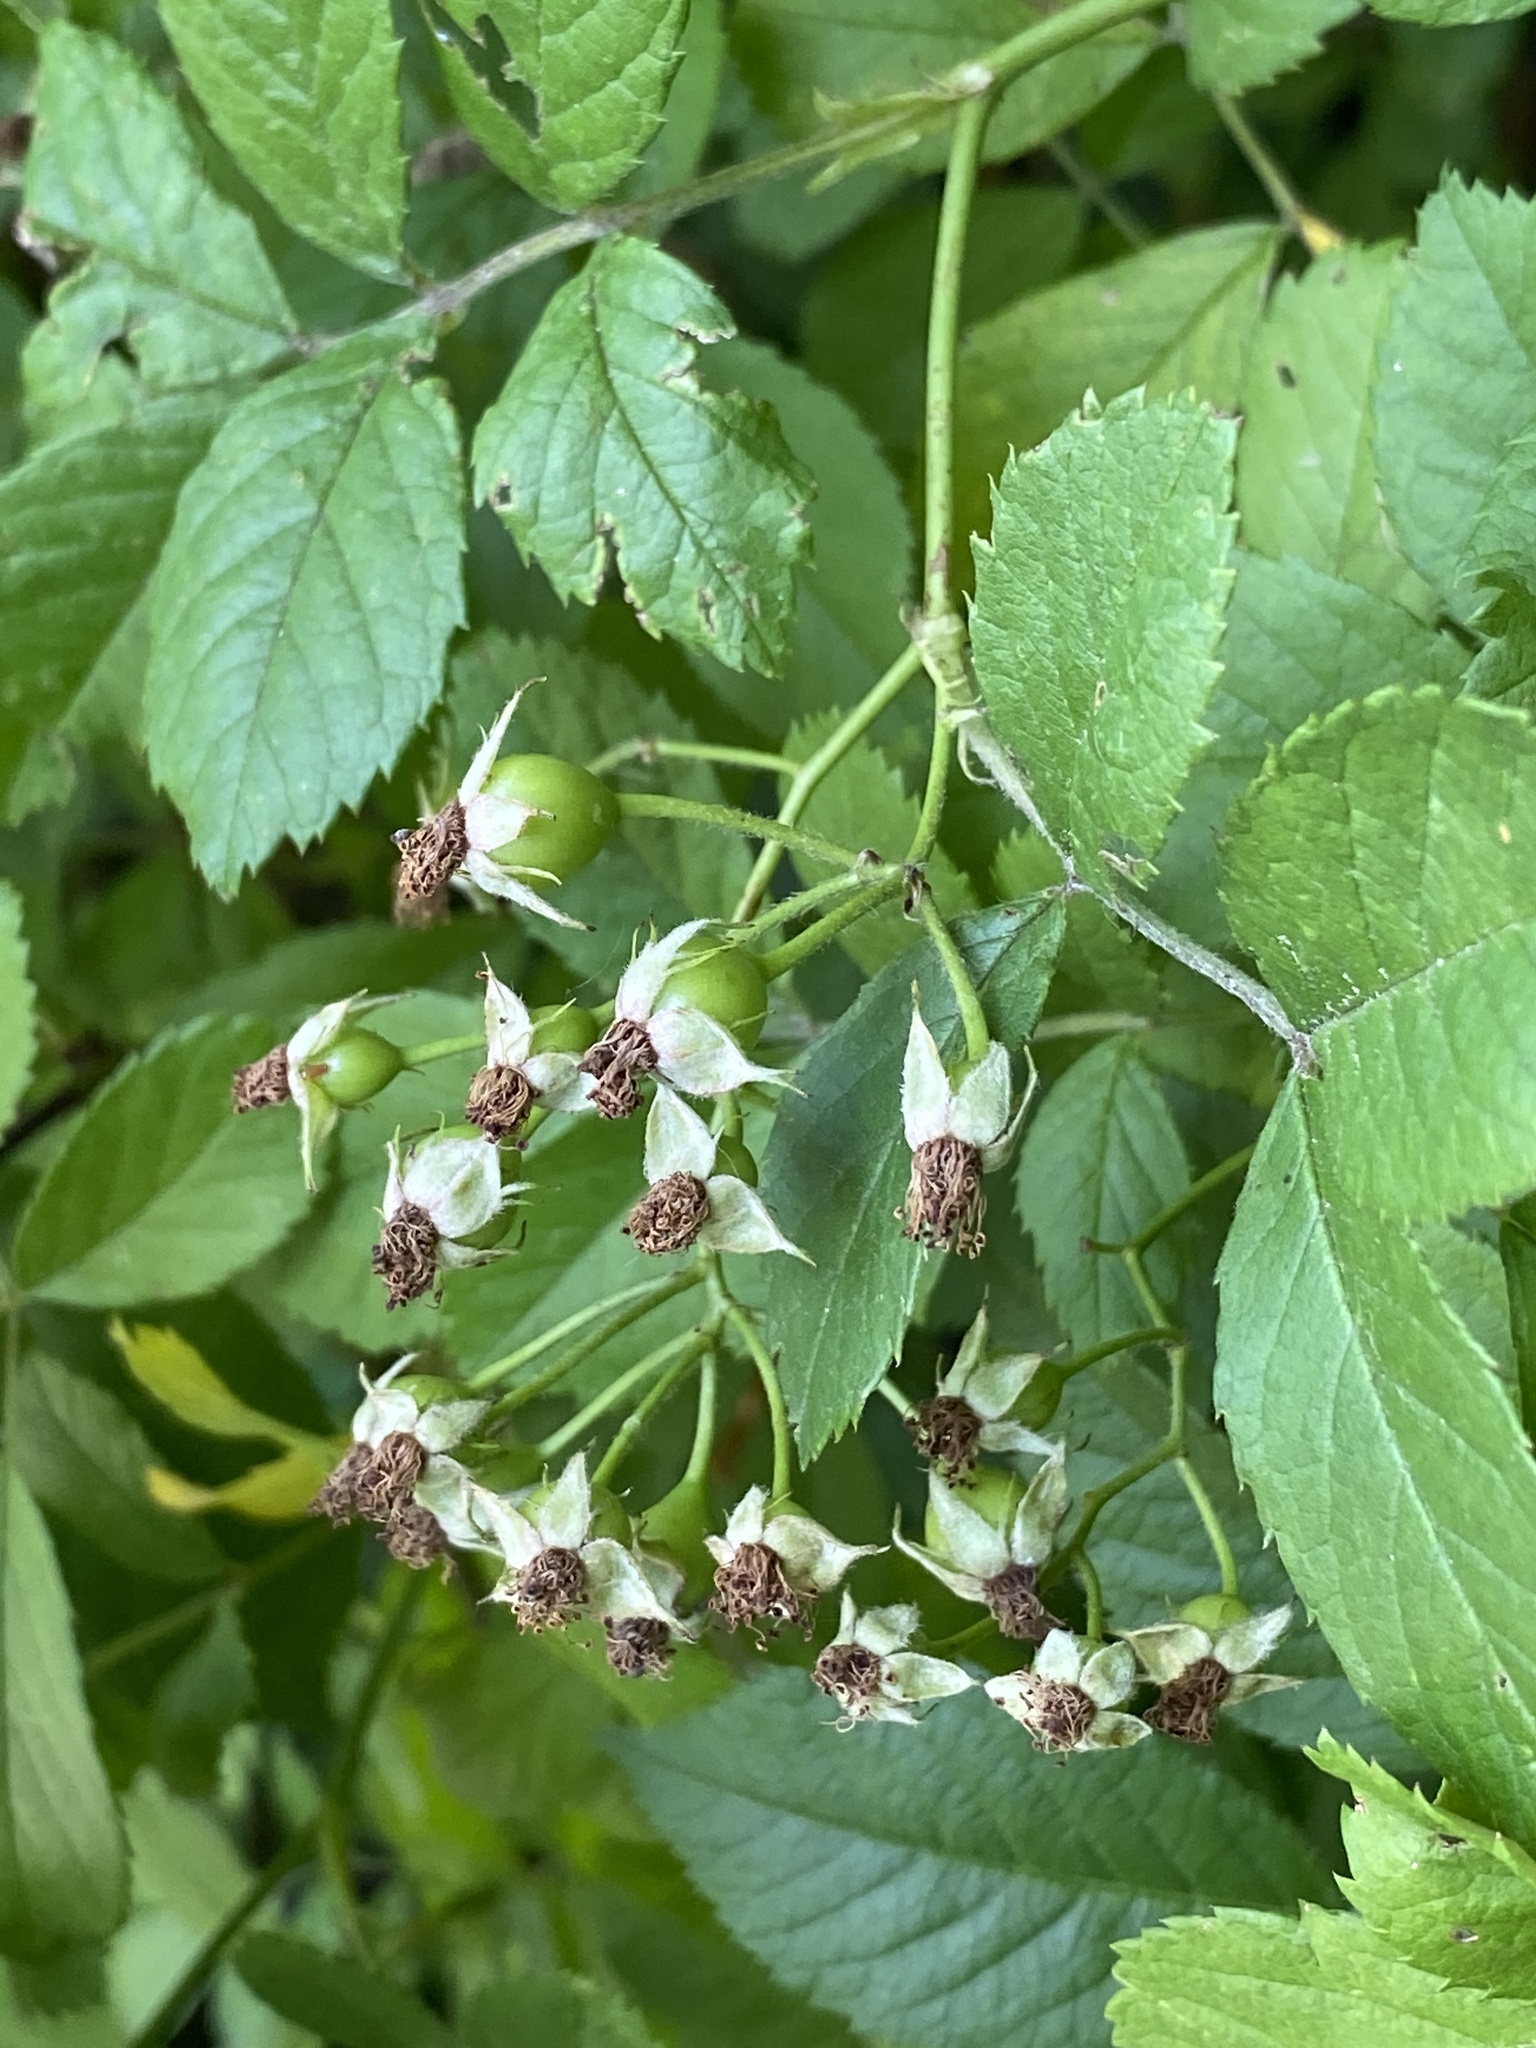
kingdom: Plantae
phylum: Tracheophyta
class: Magnoliopsida
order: Rosales
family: Rosaceae
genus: Rosa
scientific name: Rosa multiflora
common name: Multiflora rose
